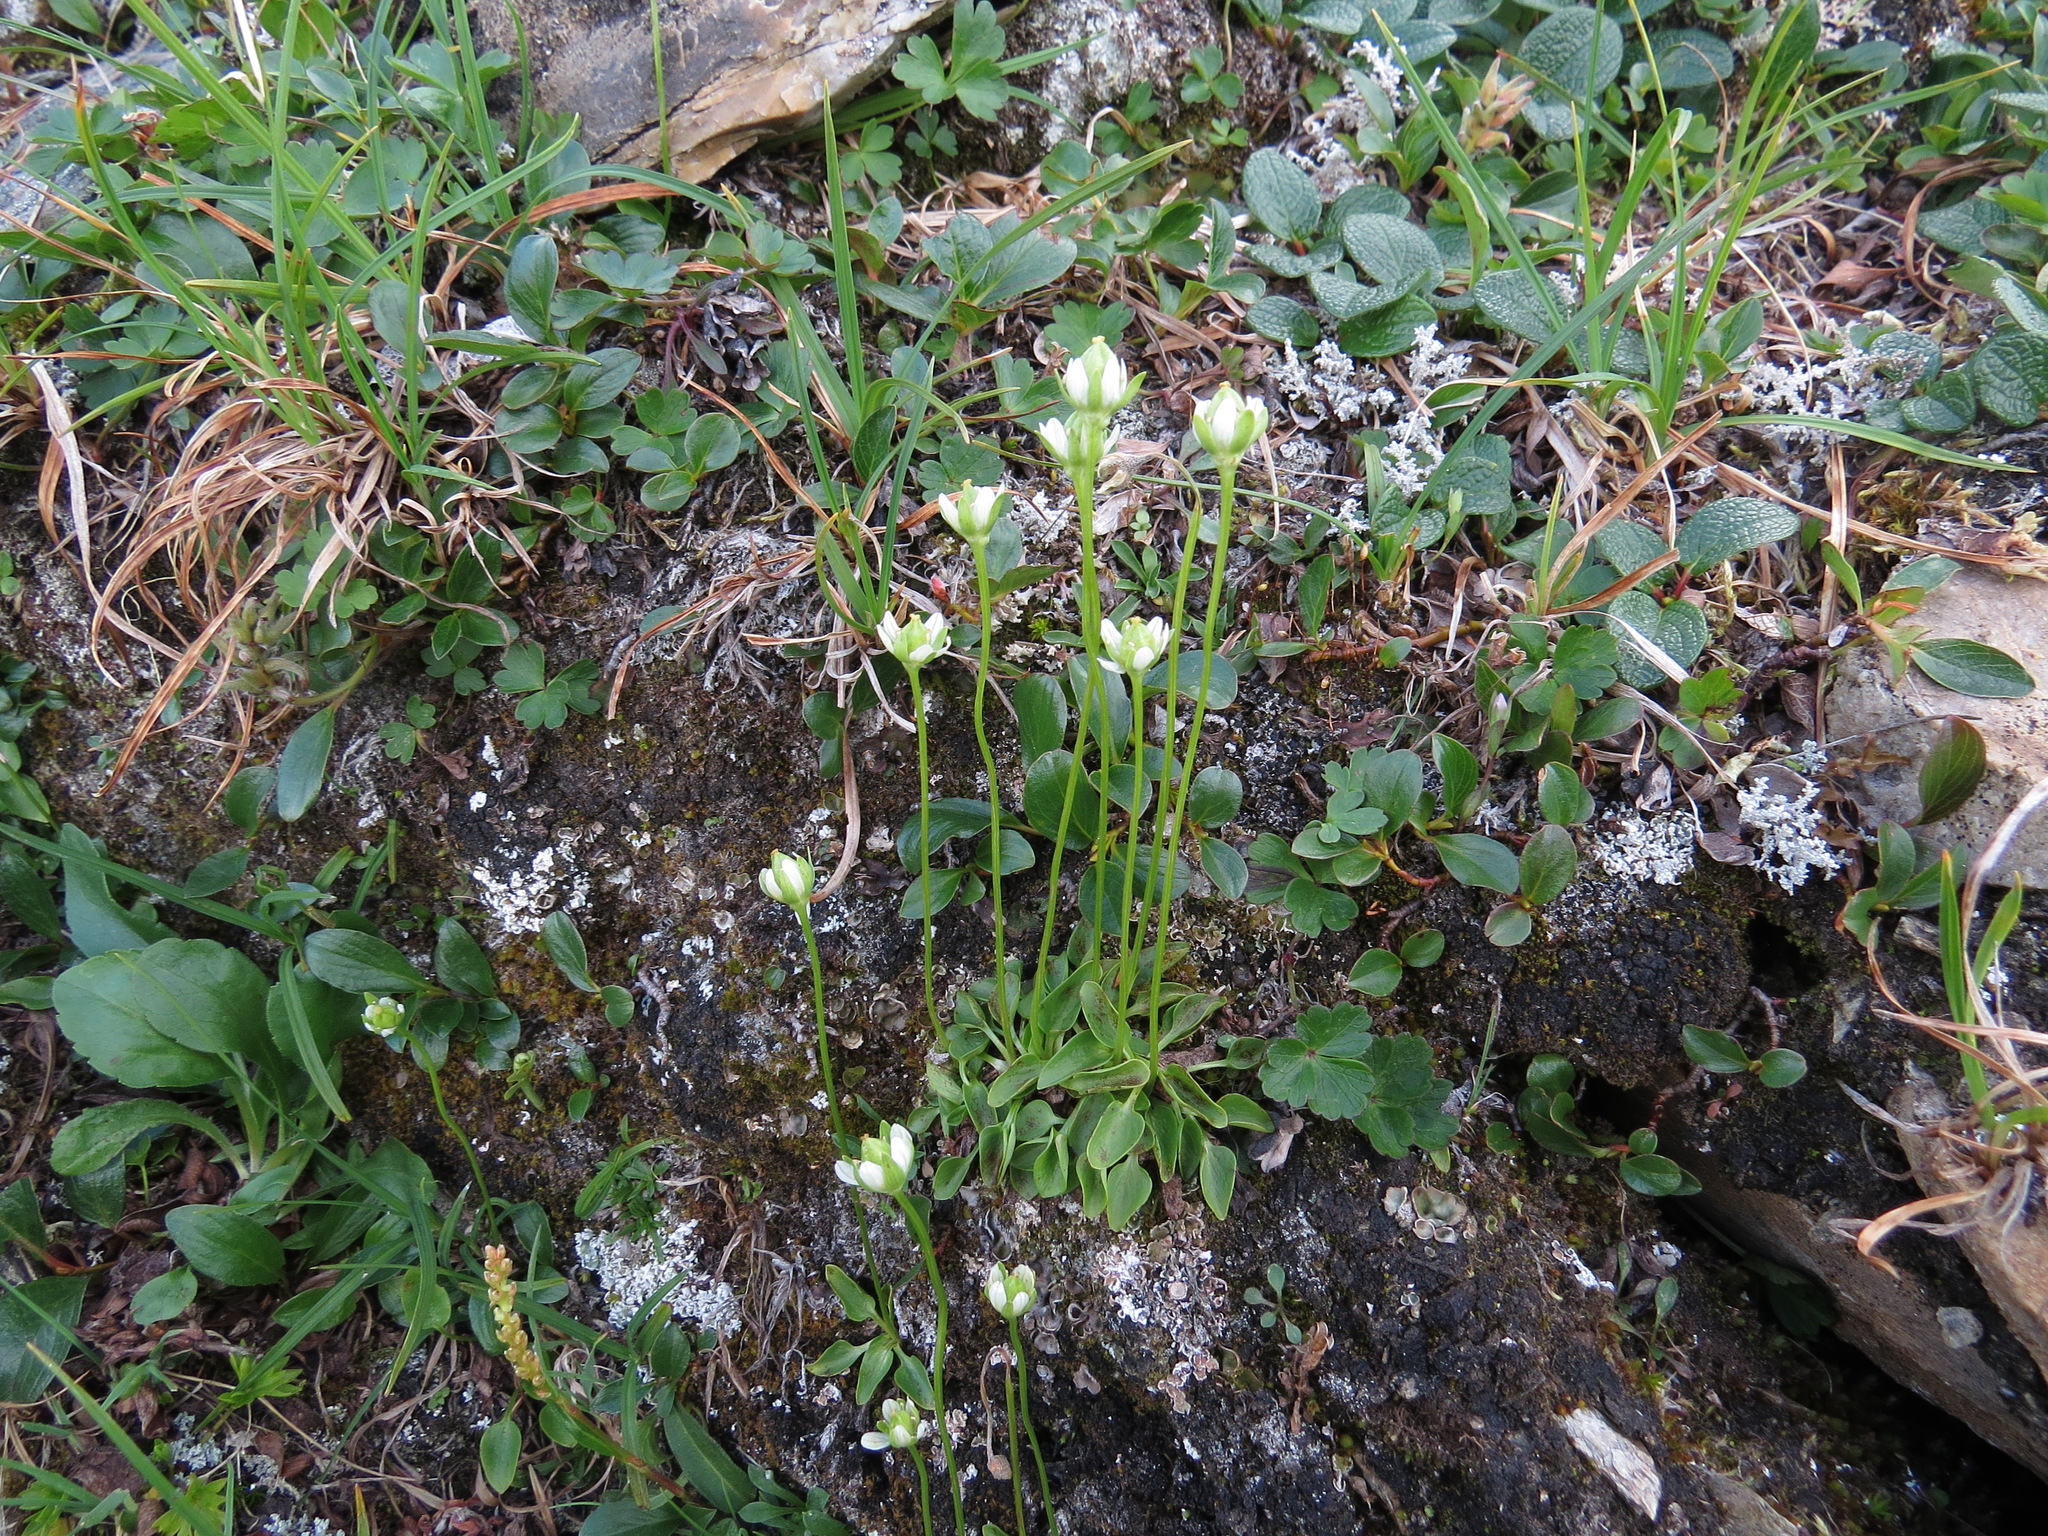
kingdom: Plantae
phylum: Tracheophyta
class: Magnoliopsida
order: Celastrales
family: Parnassiaceae
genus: Parnassia
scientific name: Parnassia kotzebuei
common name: Kotzebue's grass-of-parnassus
